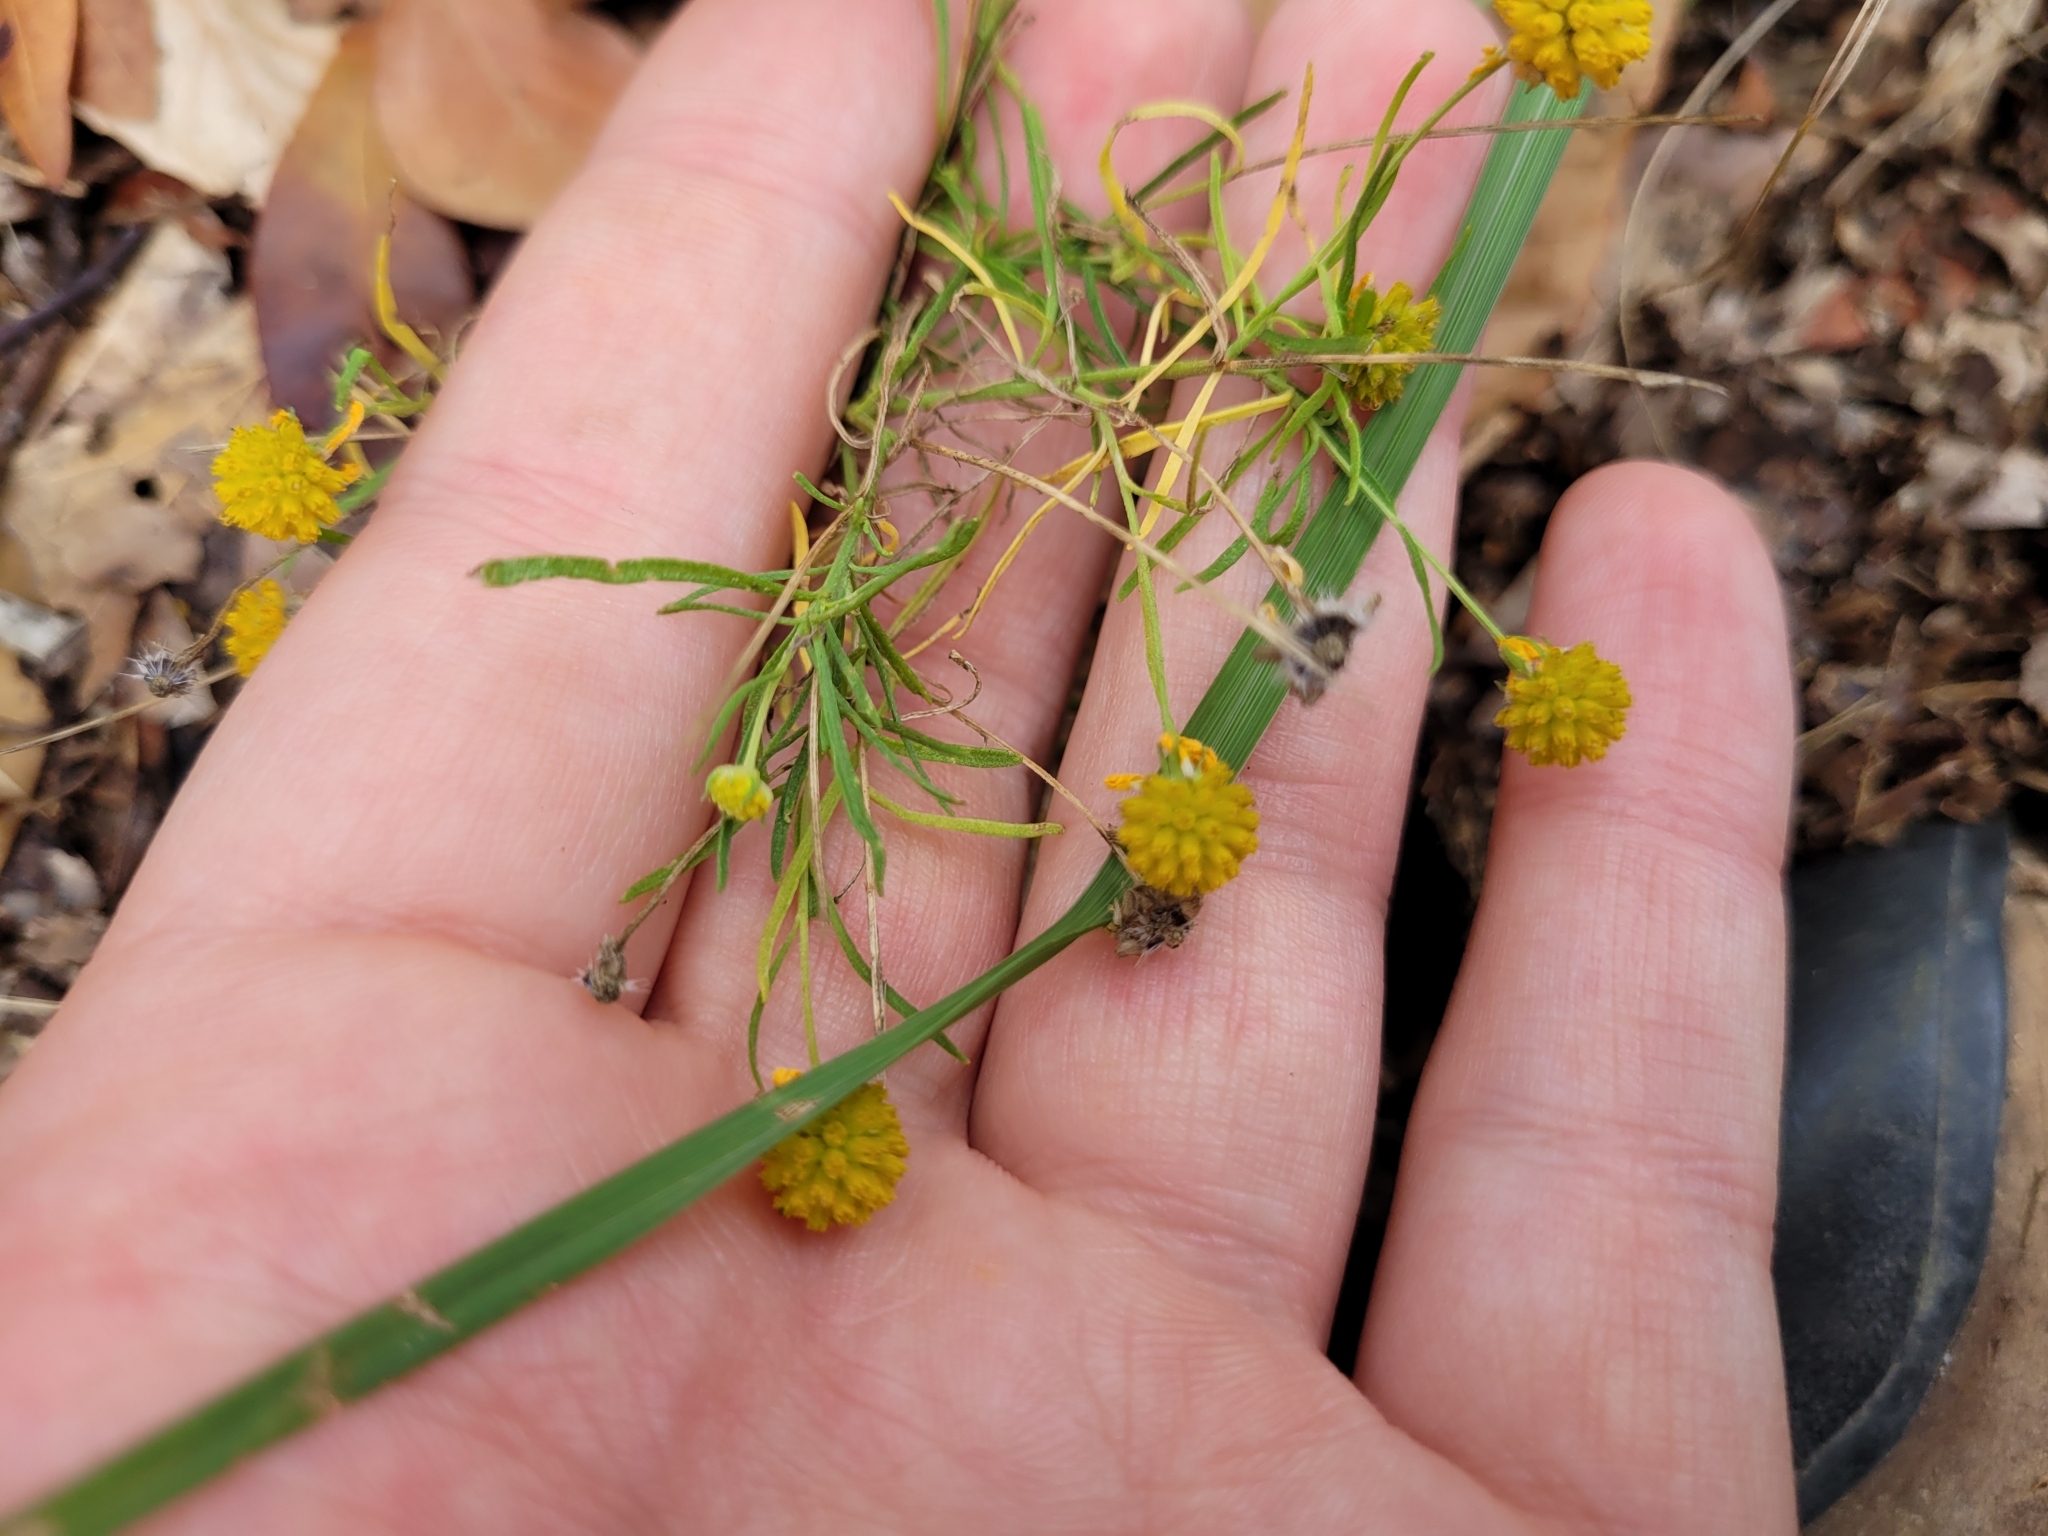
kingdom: Plantae
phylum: Tracheophyta
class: Magnoliopsida
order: Asterales
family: Asteraceae
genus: Helenium
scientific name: Helenium amarum
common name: Bitter sneezeweed
